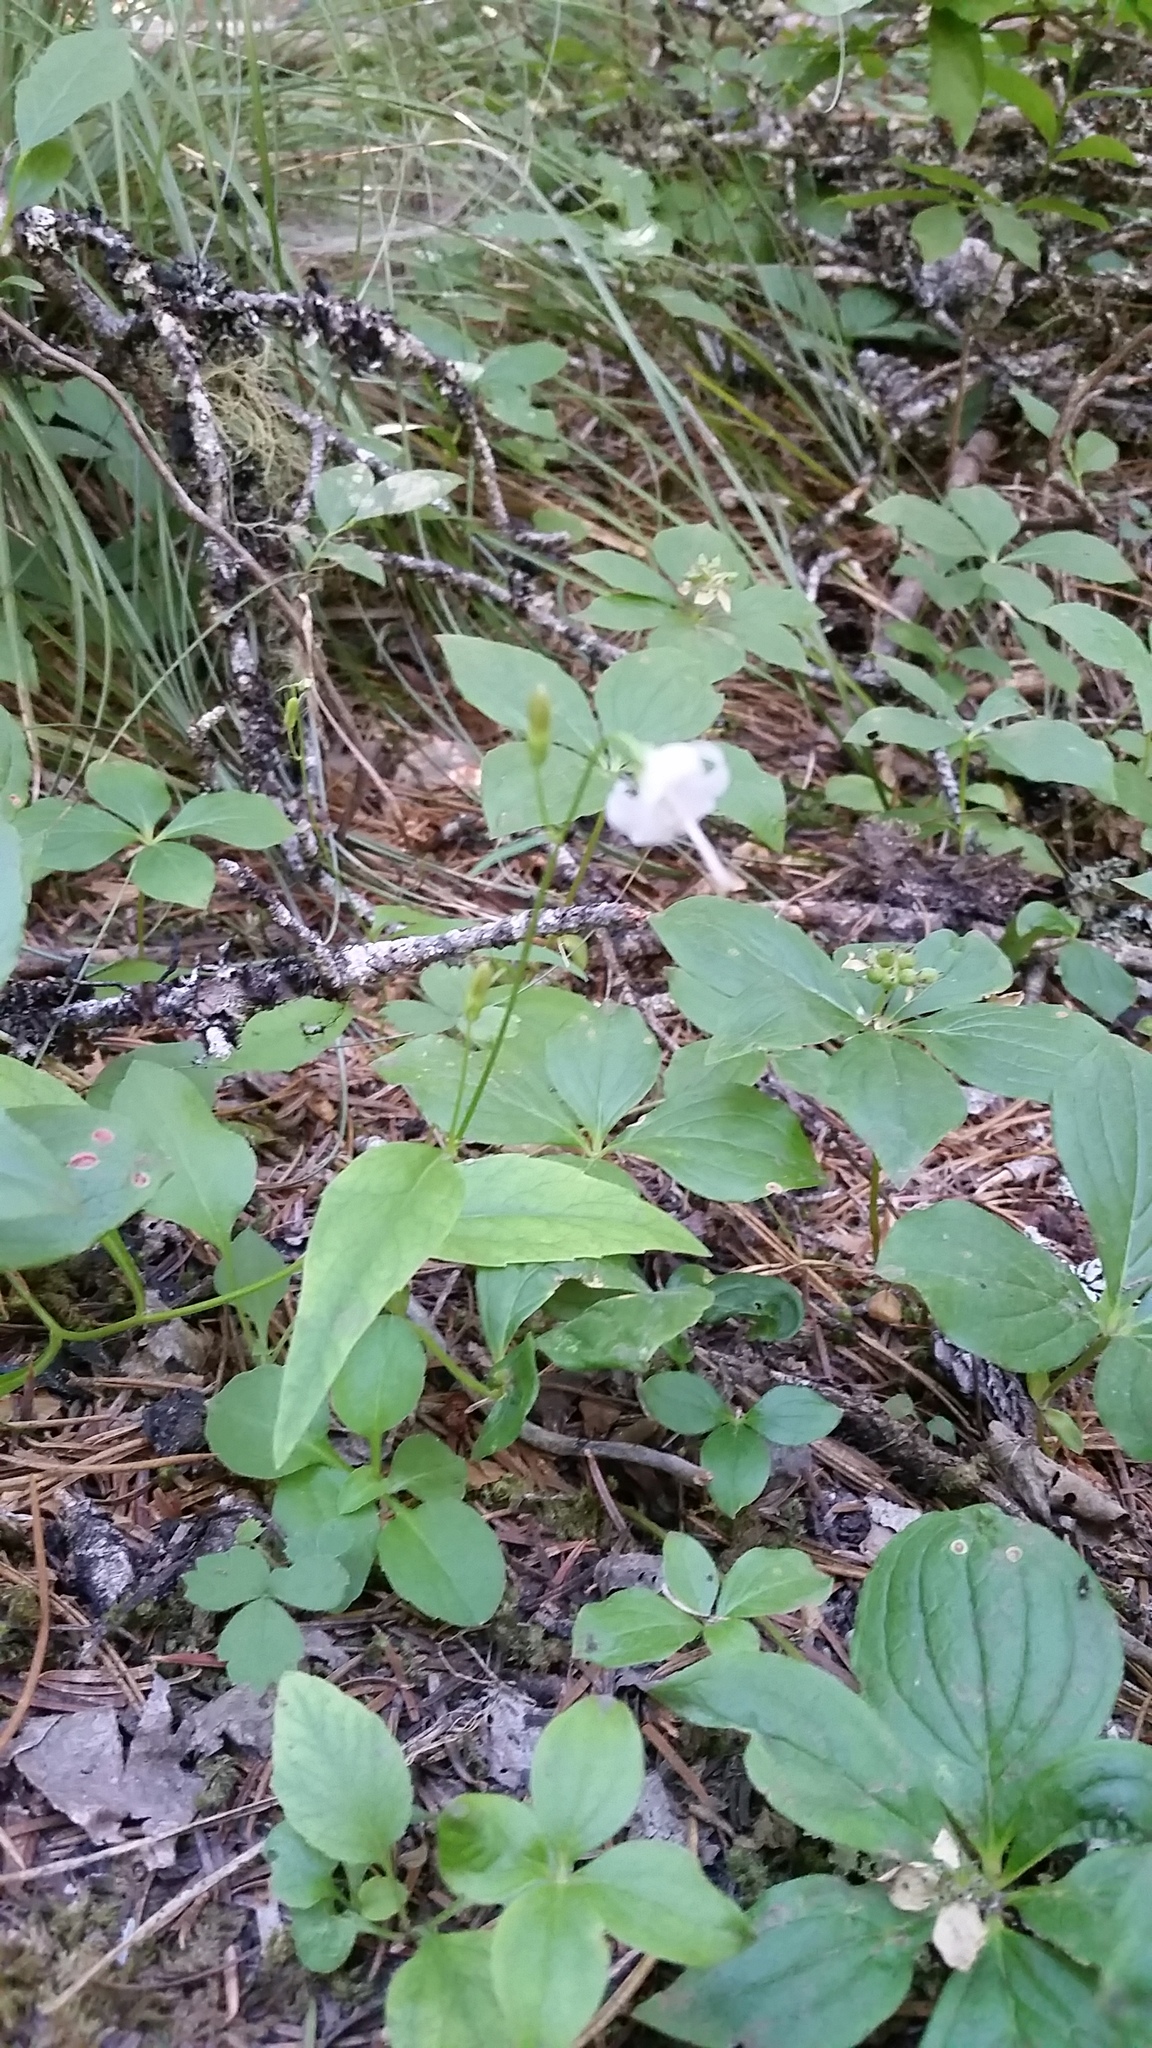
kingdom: Plantae
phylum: Tracheophyta
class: Magnoliopsida
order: Asterales
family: Campanulaceae
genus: Campanula
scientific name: Campanula scouleri
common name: Scouler's harebell
